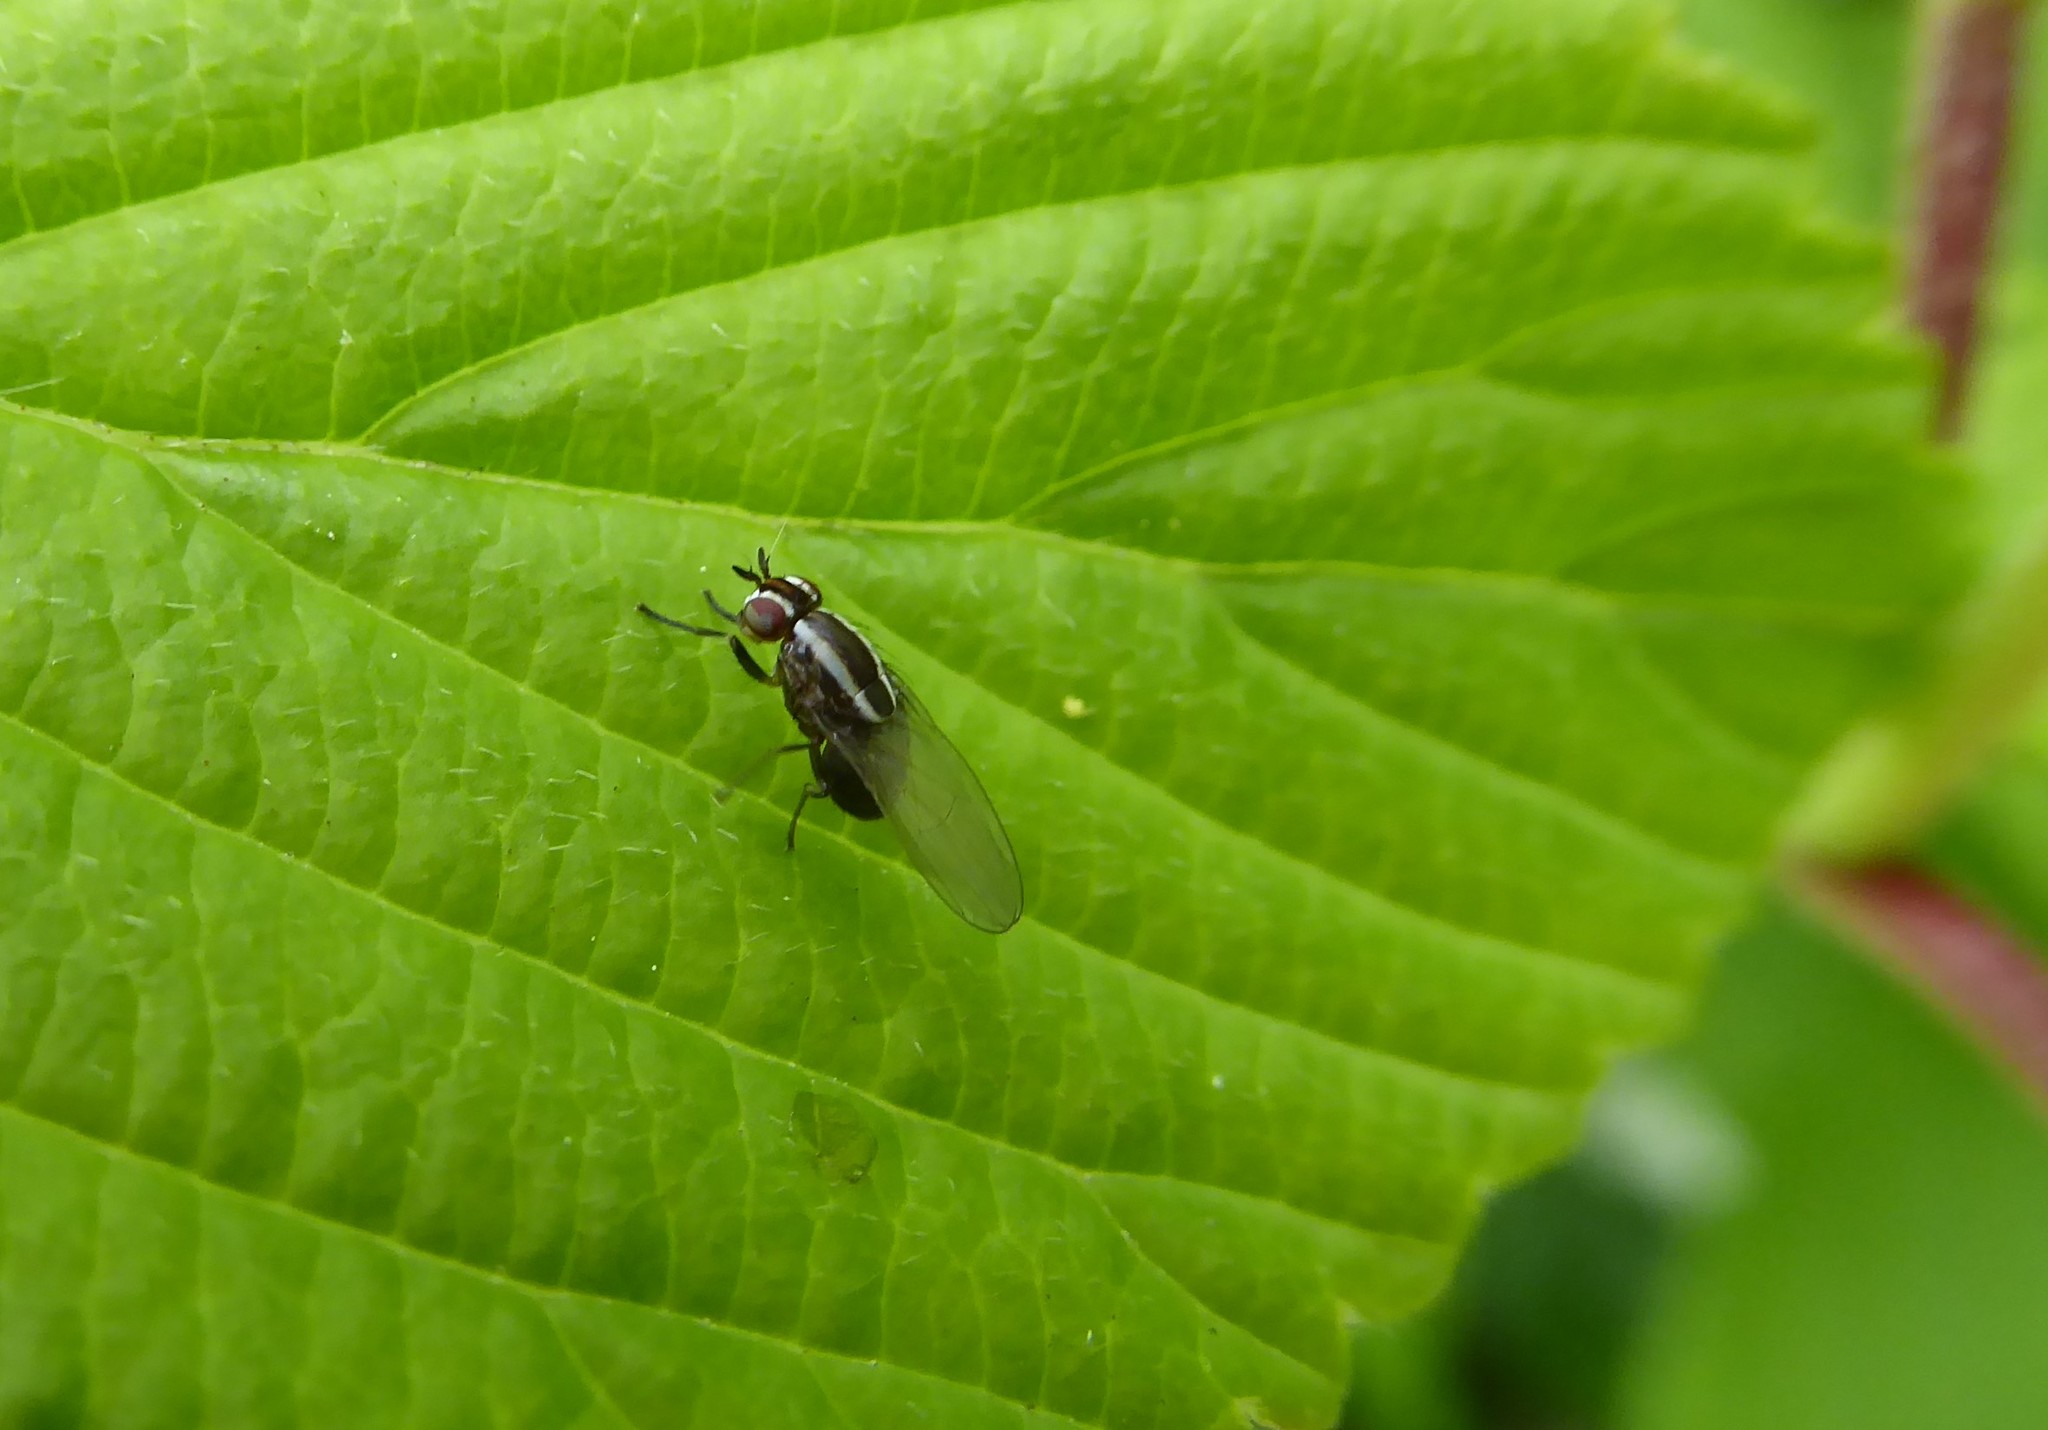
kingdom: Animalia
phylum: Arthropoda
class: Insecta
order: Diptera
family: Lauxaniidae
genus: Poecilohetaerella
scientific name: Poecilohetaerella dubiosa
